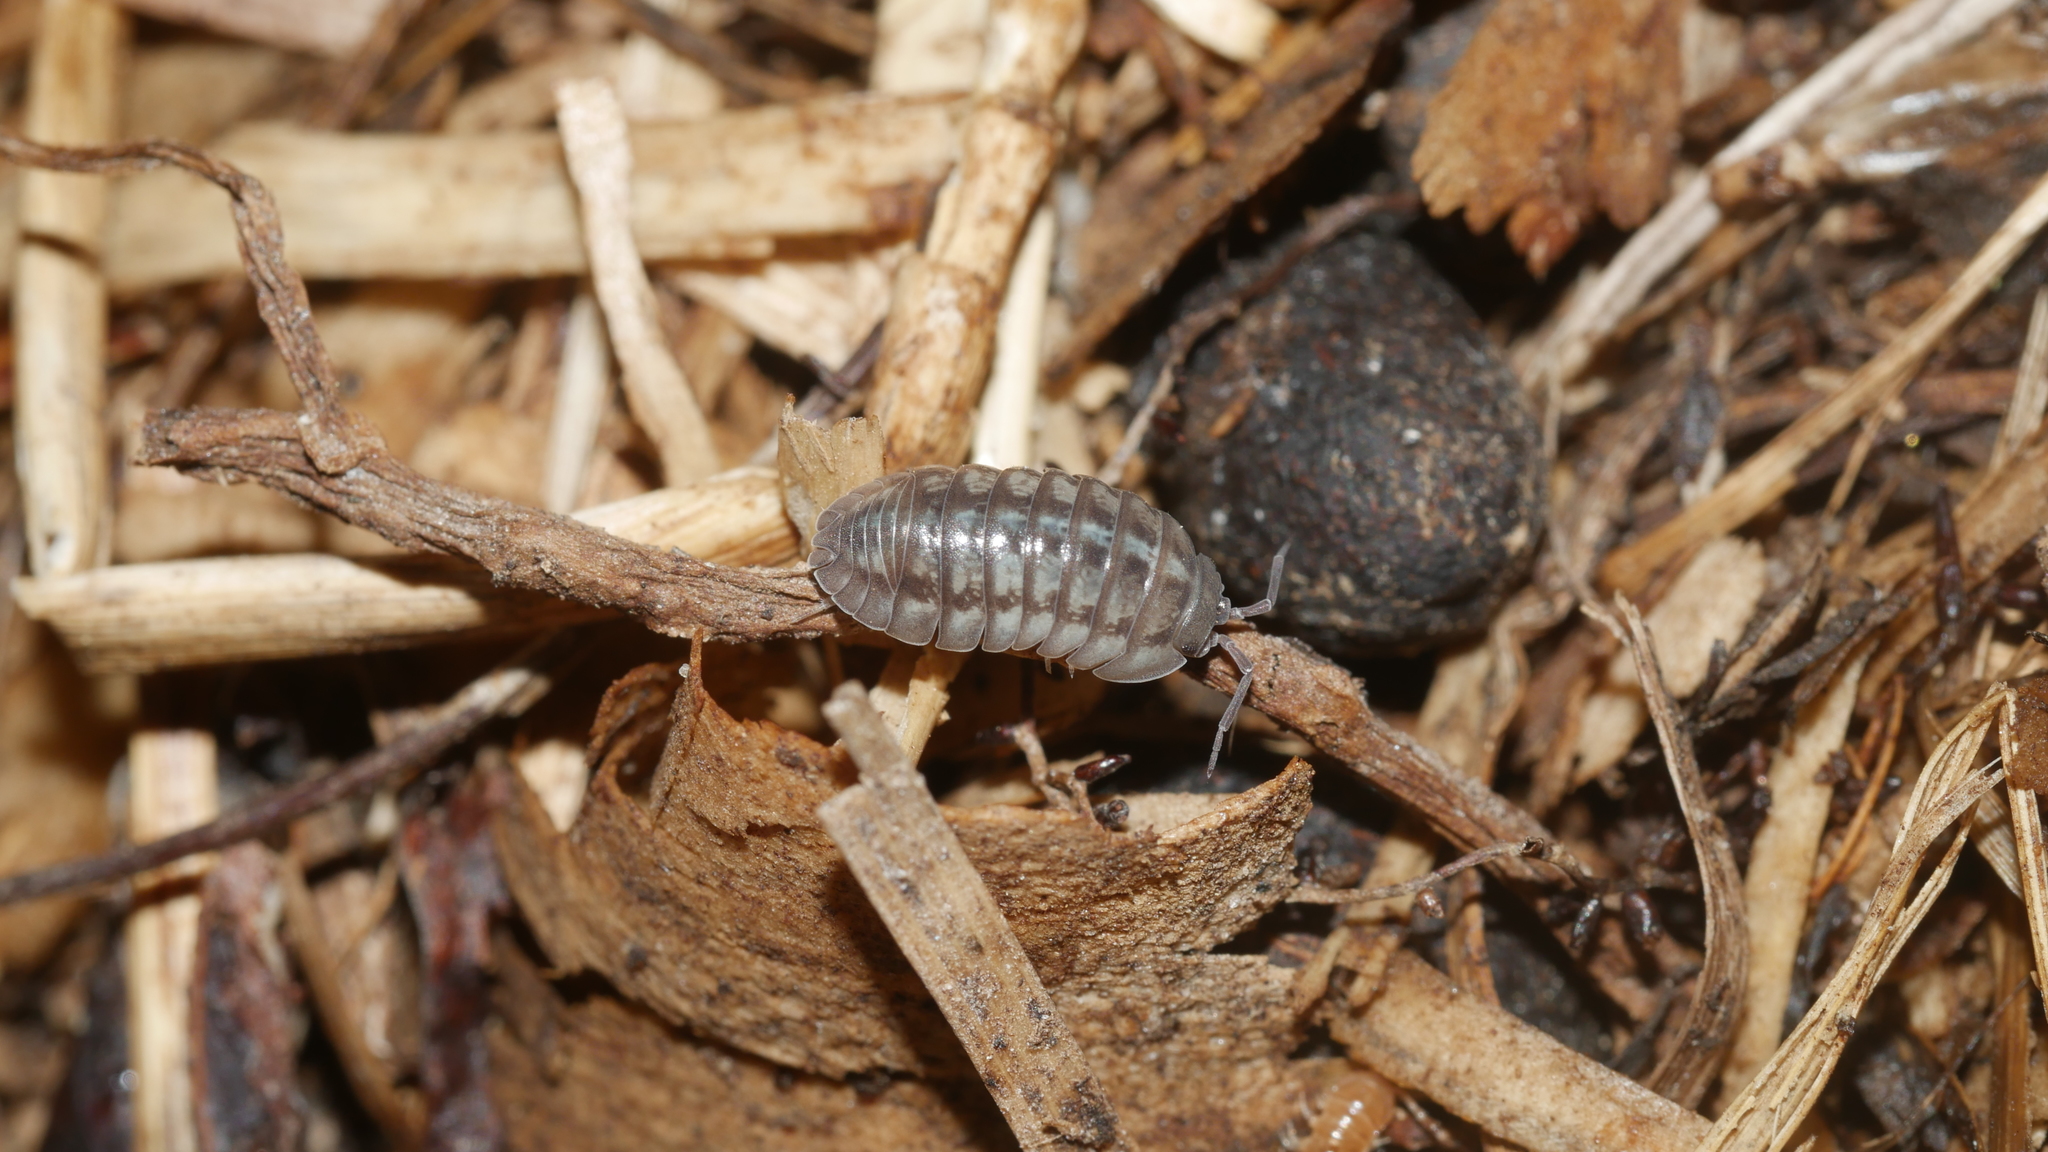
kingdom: Animalia
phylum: Arthropoda
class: Malacostraca
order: Isopoda
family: Armadillidiidae
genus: Armadillidium
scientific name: Armadillidium nasatum
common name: Isopod
